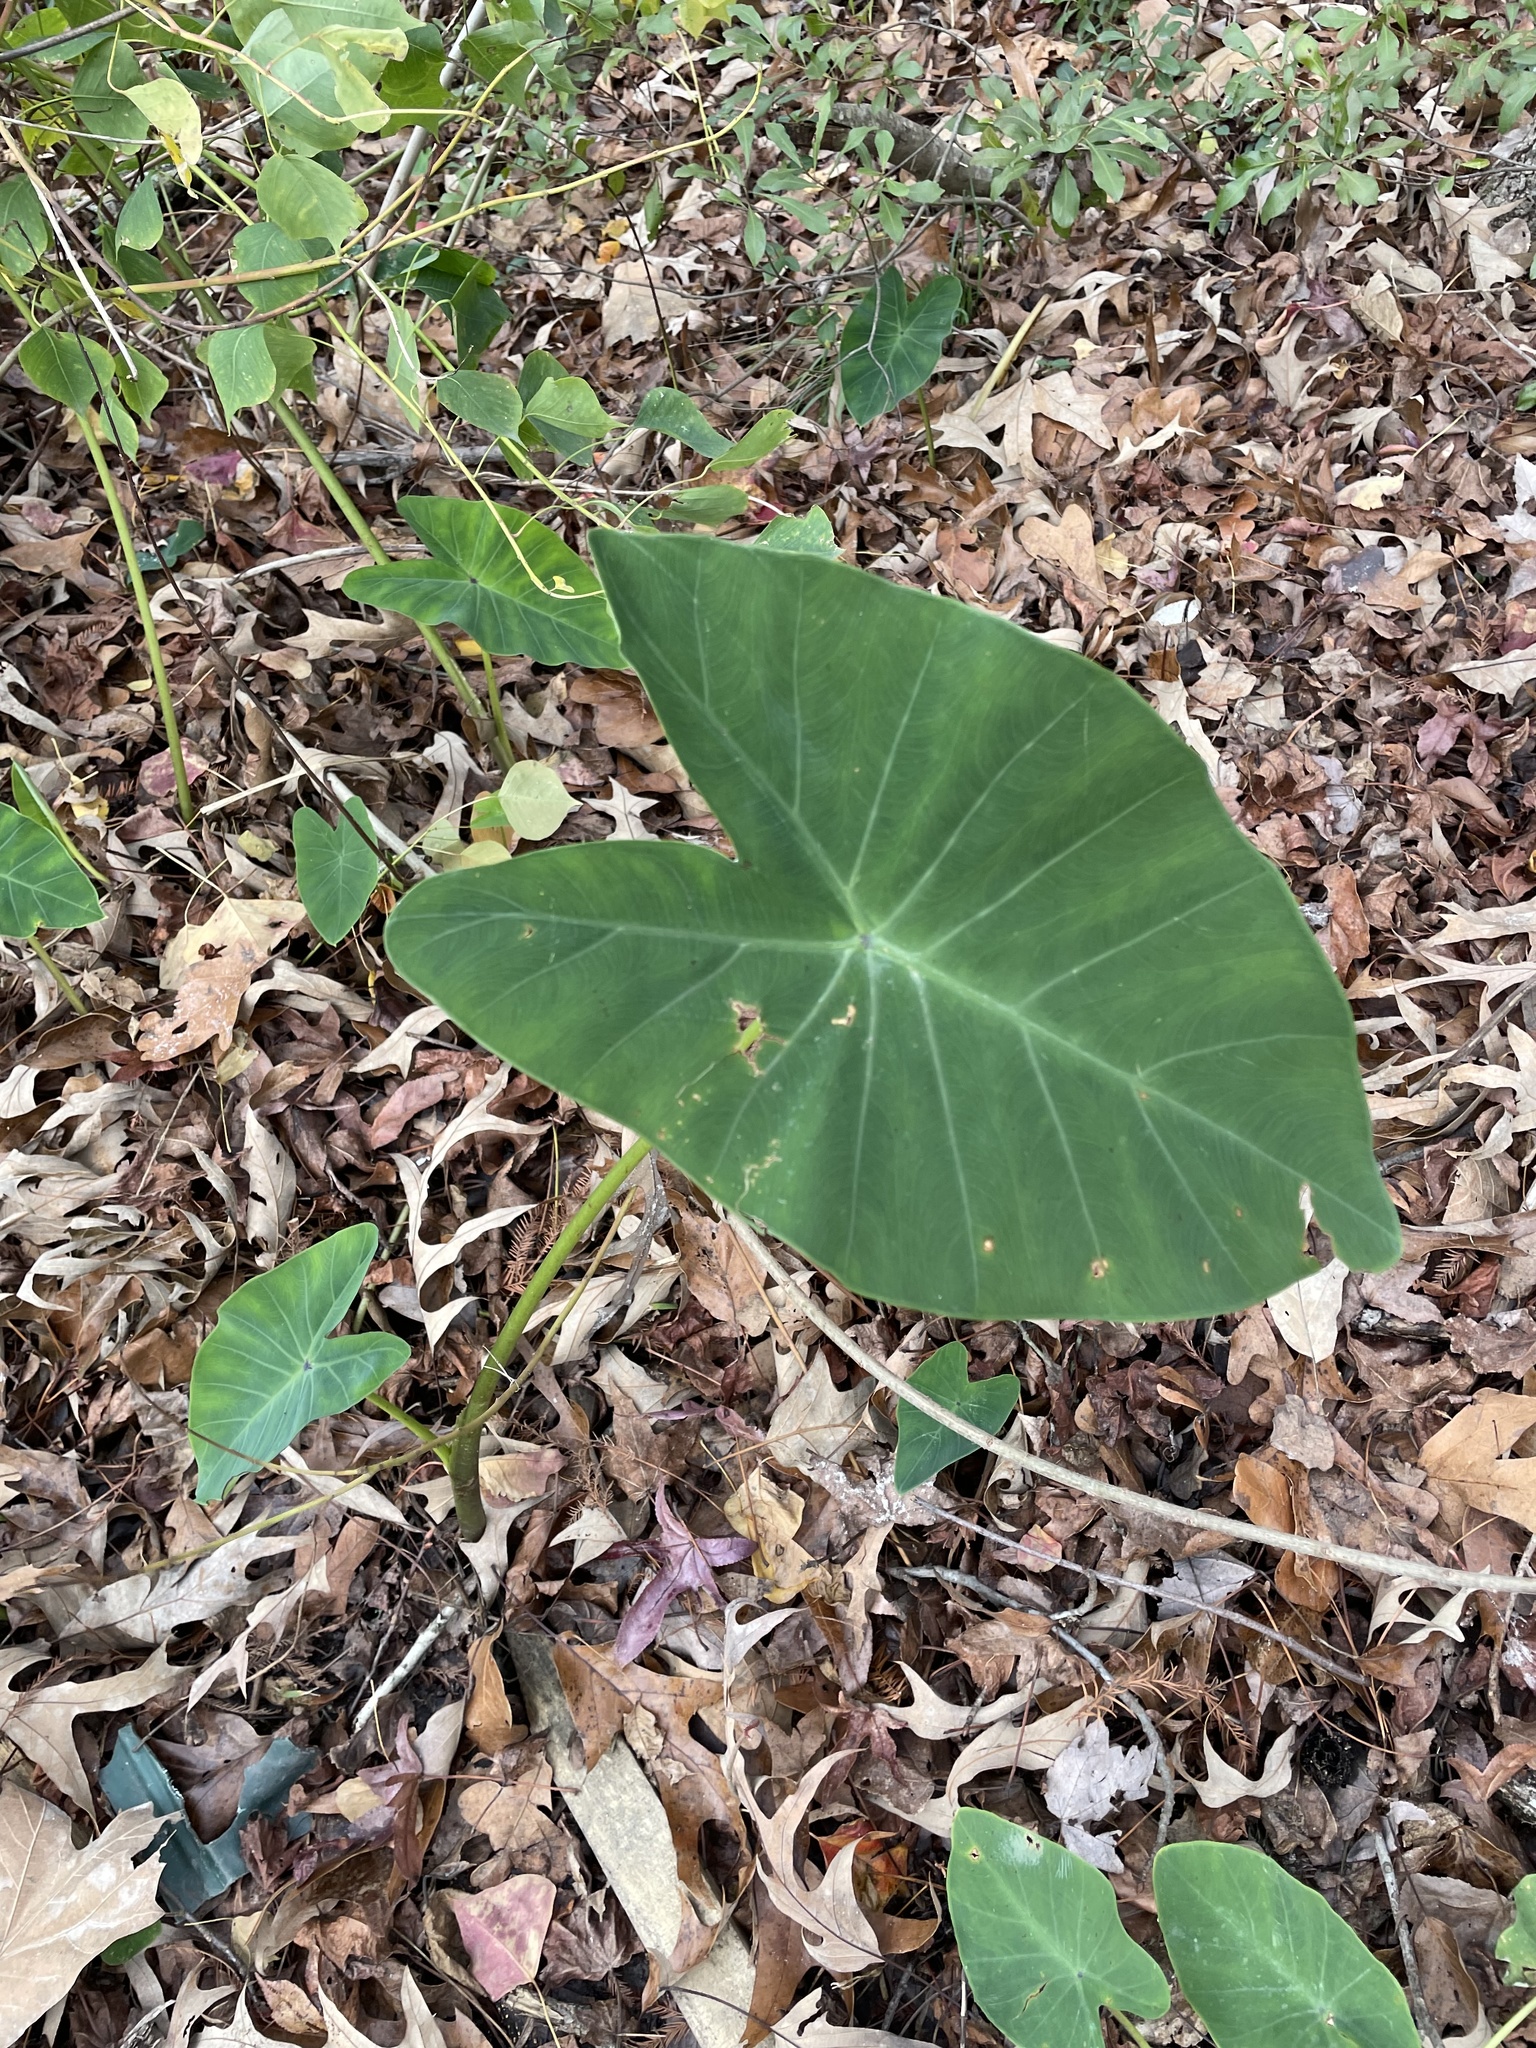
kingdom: Plantae
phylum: Tracheophyta
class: Liliopsida
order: Alismatales
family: Araceae
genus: Colocasia
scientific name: Colocasia esculenta
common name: Taro
